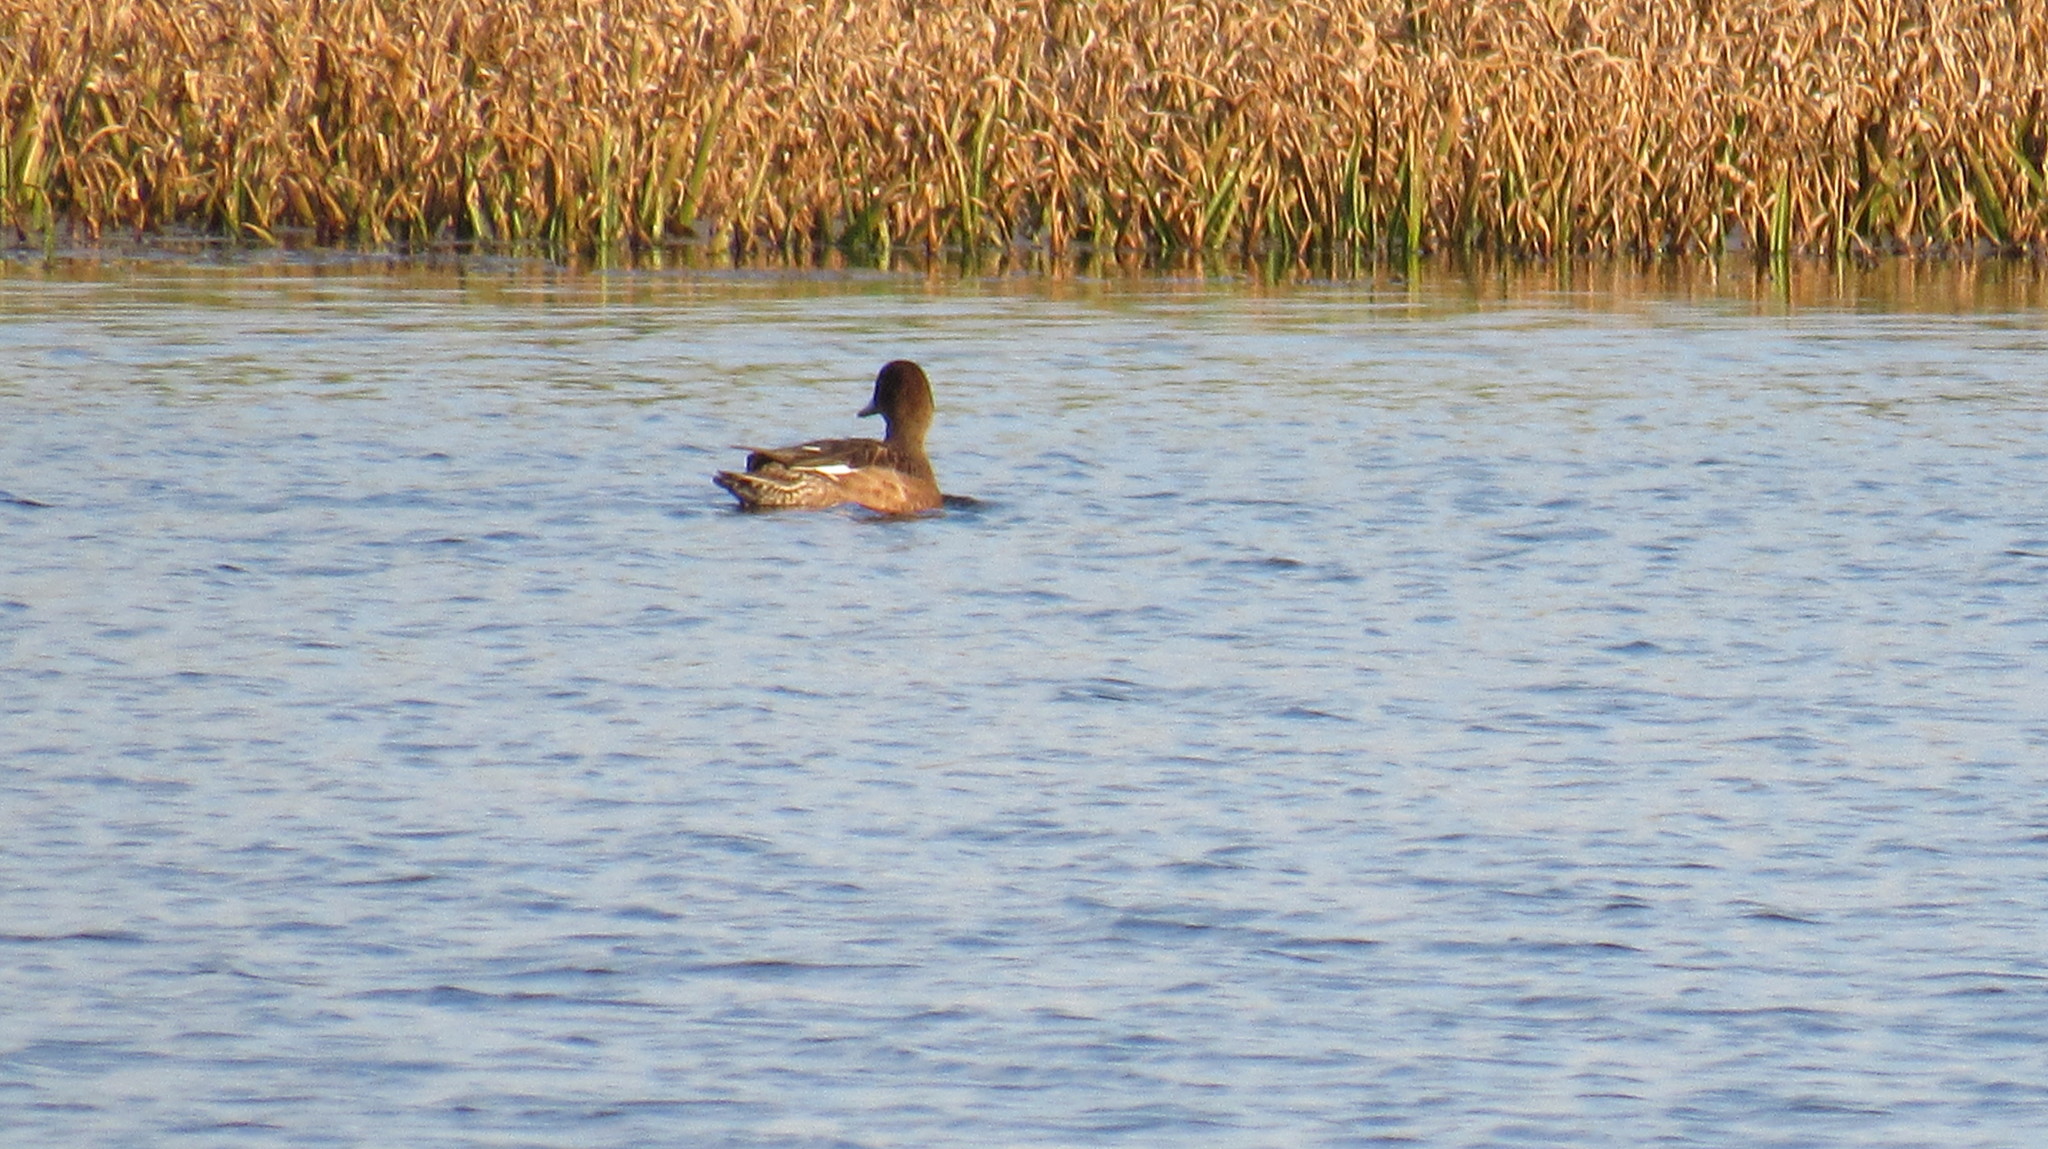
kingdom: Animalia
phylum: Chordata
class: Aves
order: Anseriformes
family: Anatidae
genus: Mareca
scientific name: Mareca penelope
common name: Eurasian wigeon
